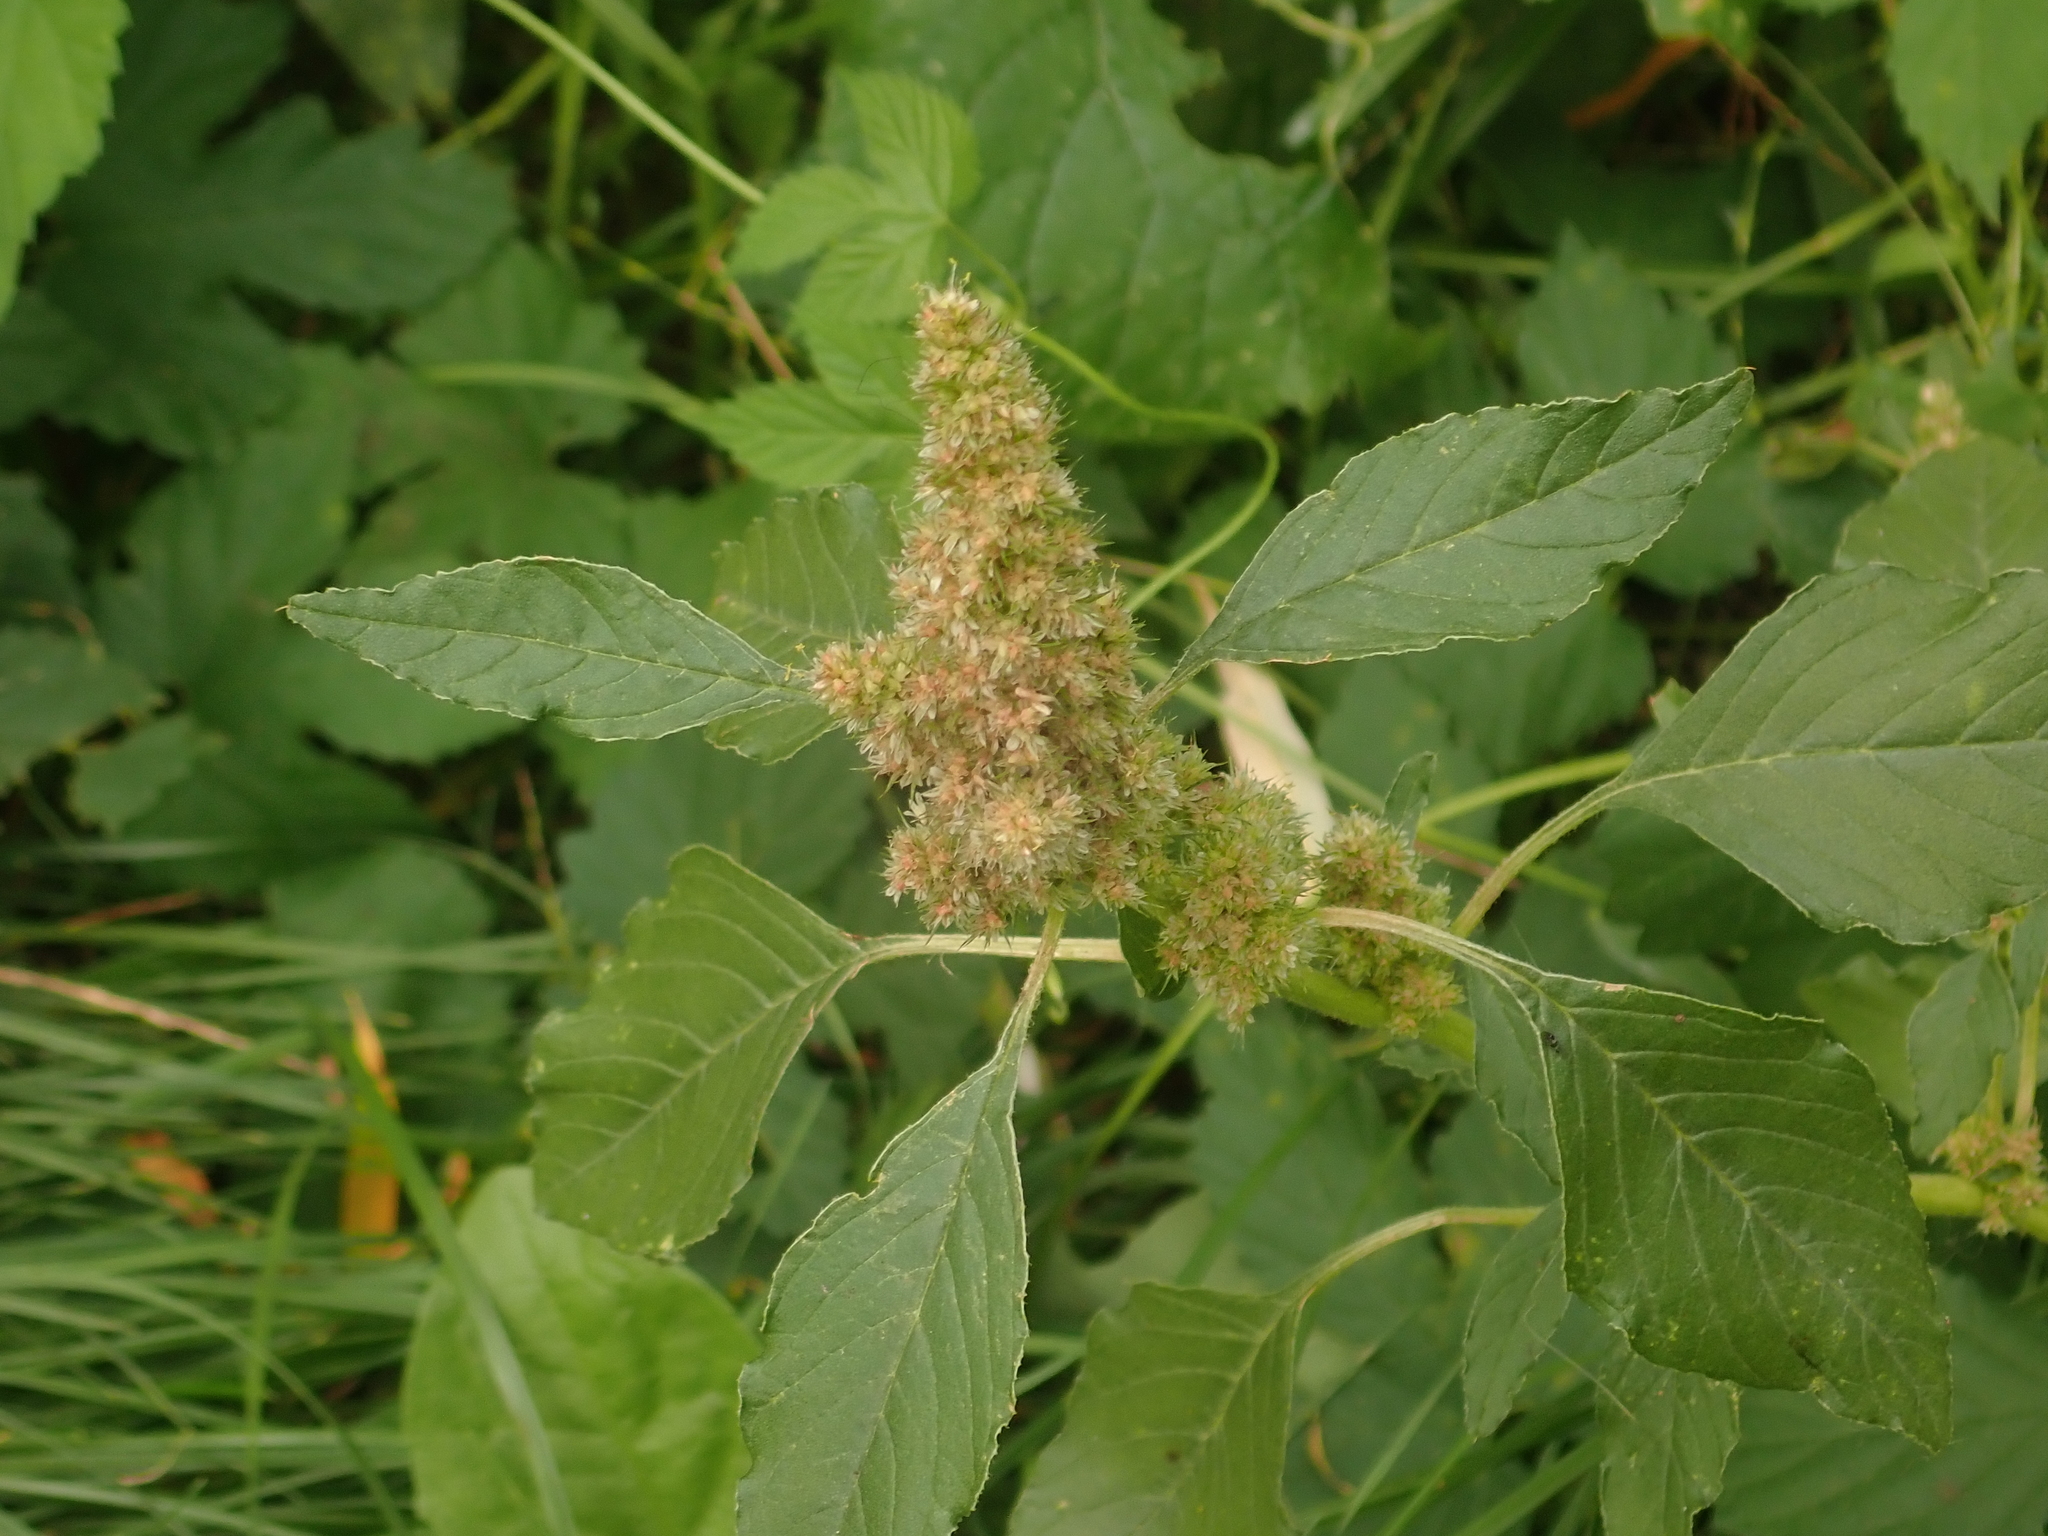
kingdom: Plantae
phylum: Tracheophyta
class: Magnoliopsida
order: Caryophyllales
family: Amaranthaceae
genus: Amaranthus
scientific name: Amaranthus retroflexus
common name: Redroot amaranth
